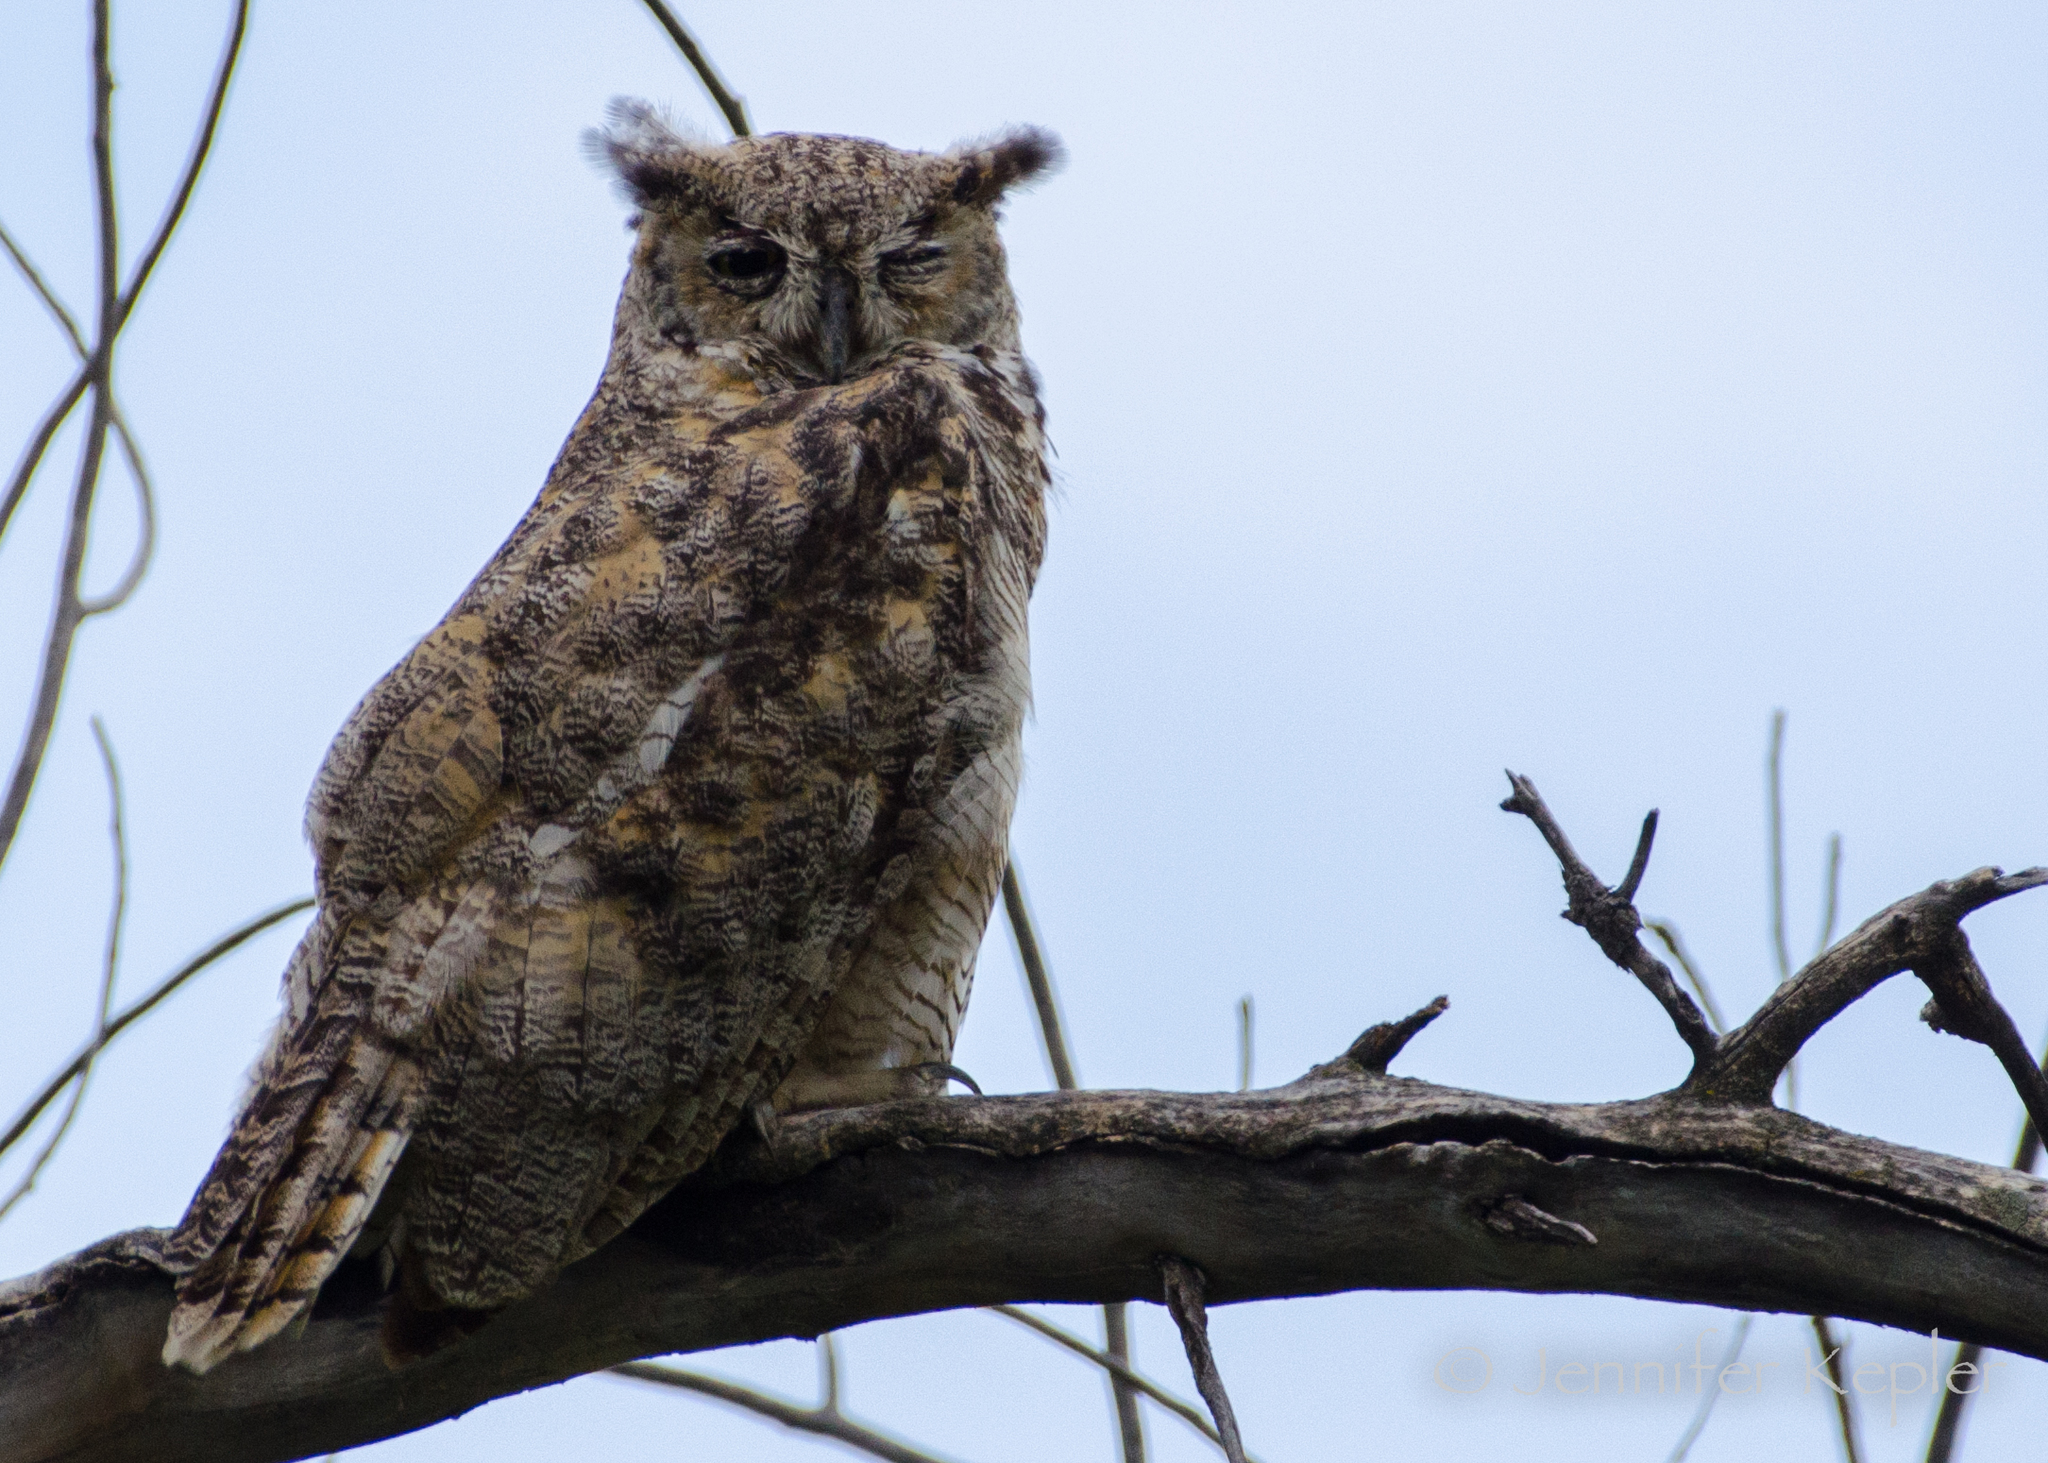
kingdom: Animalia
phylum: Chordata
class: Aves
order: Strigiformes
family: Strigidae
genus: Bubo
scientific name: Bubo virginianus
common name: Great horned owl
